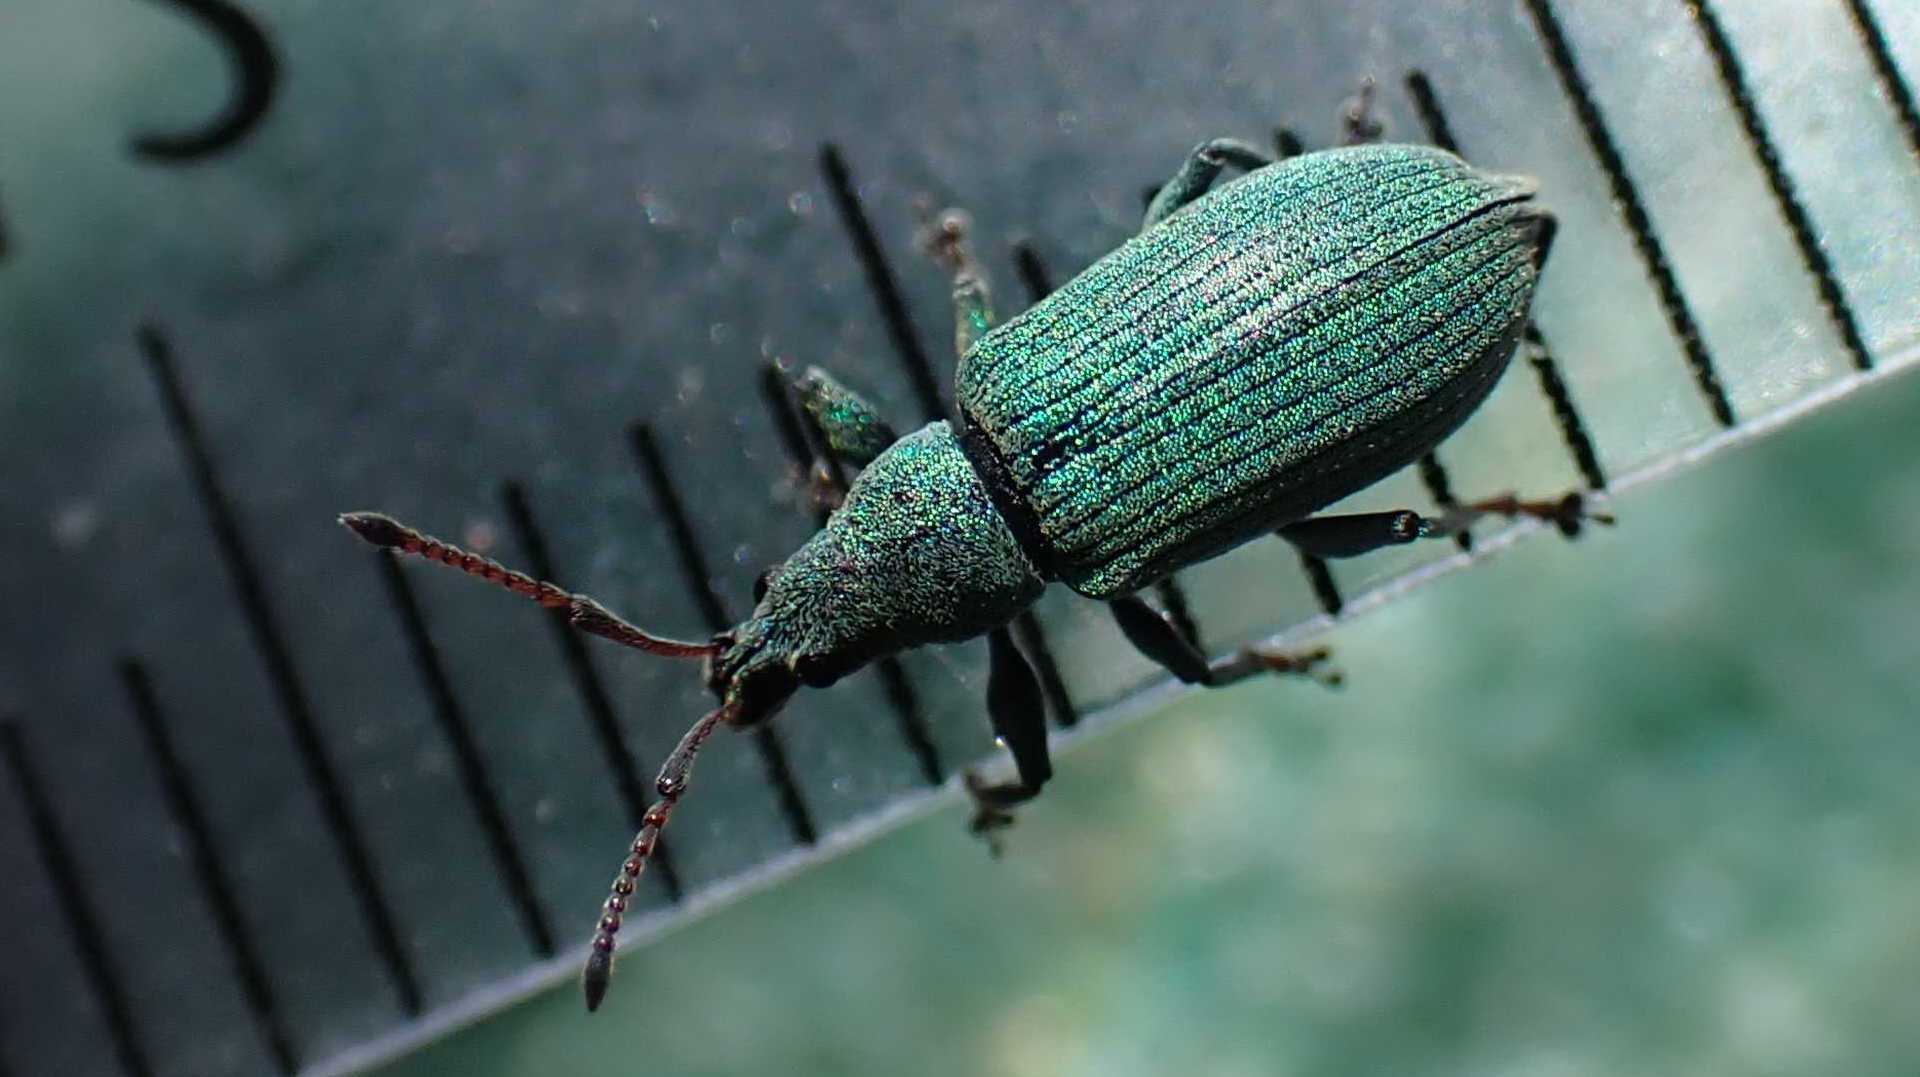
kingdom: Animalia
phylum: Arthropoda
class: Insecta
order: Coleoptera
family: Curculionidae
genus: Phyllobius
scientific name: Phyllobius maculicornis
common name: Green leaf weevil
